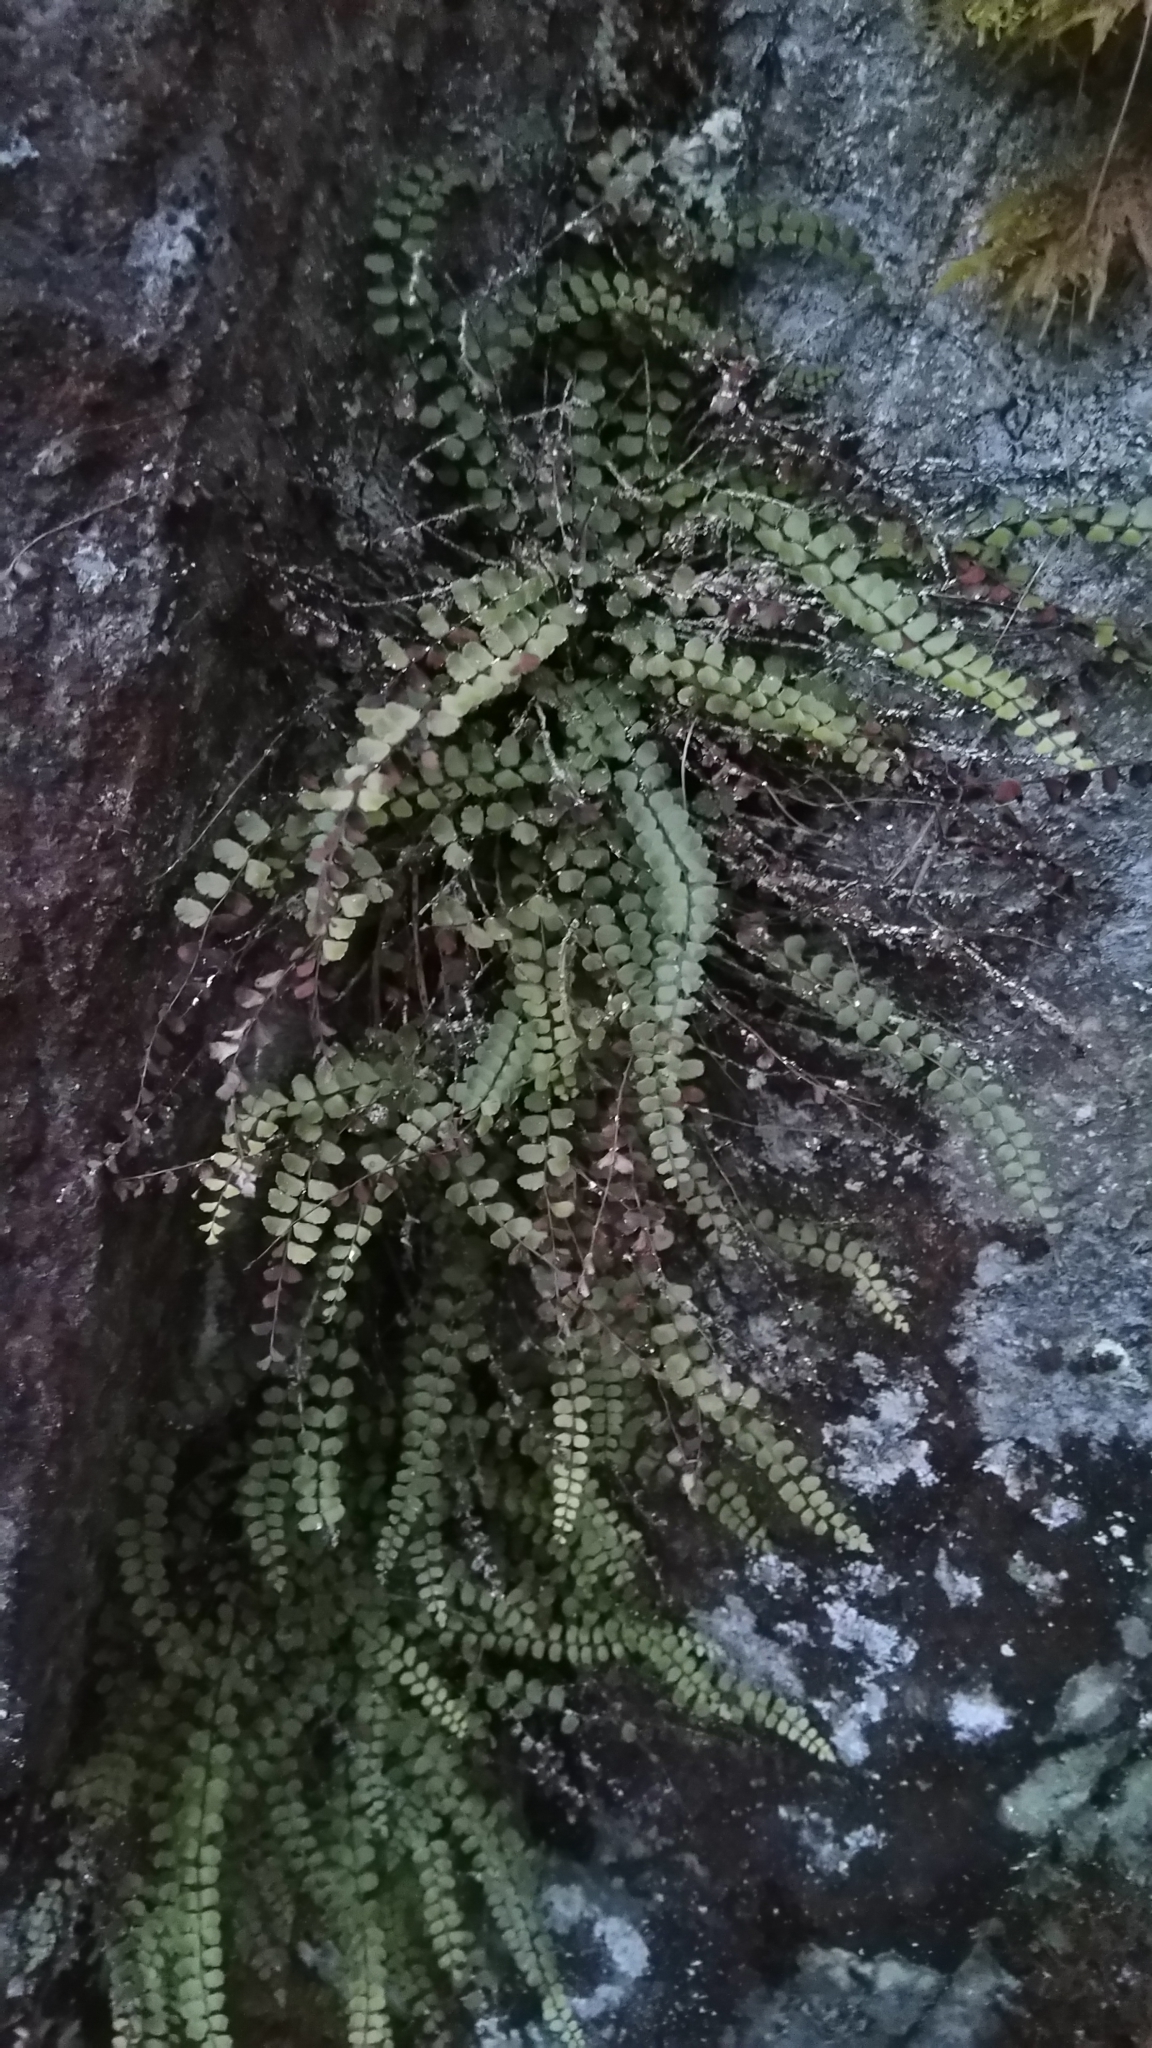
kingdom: Plantae
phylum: Tracheophyta
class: Polypodiopsida
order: Polypodiales
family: Aspleniaceae
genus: Asplenium
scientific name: Asplenium trichomanes
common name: Maidenhair spleenwort
